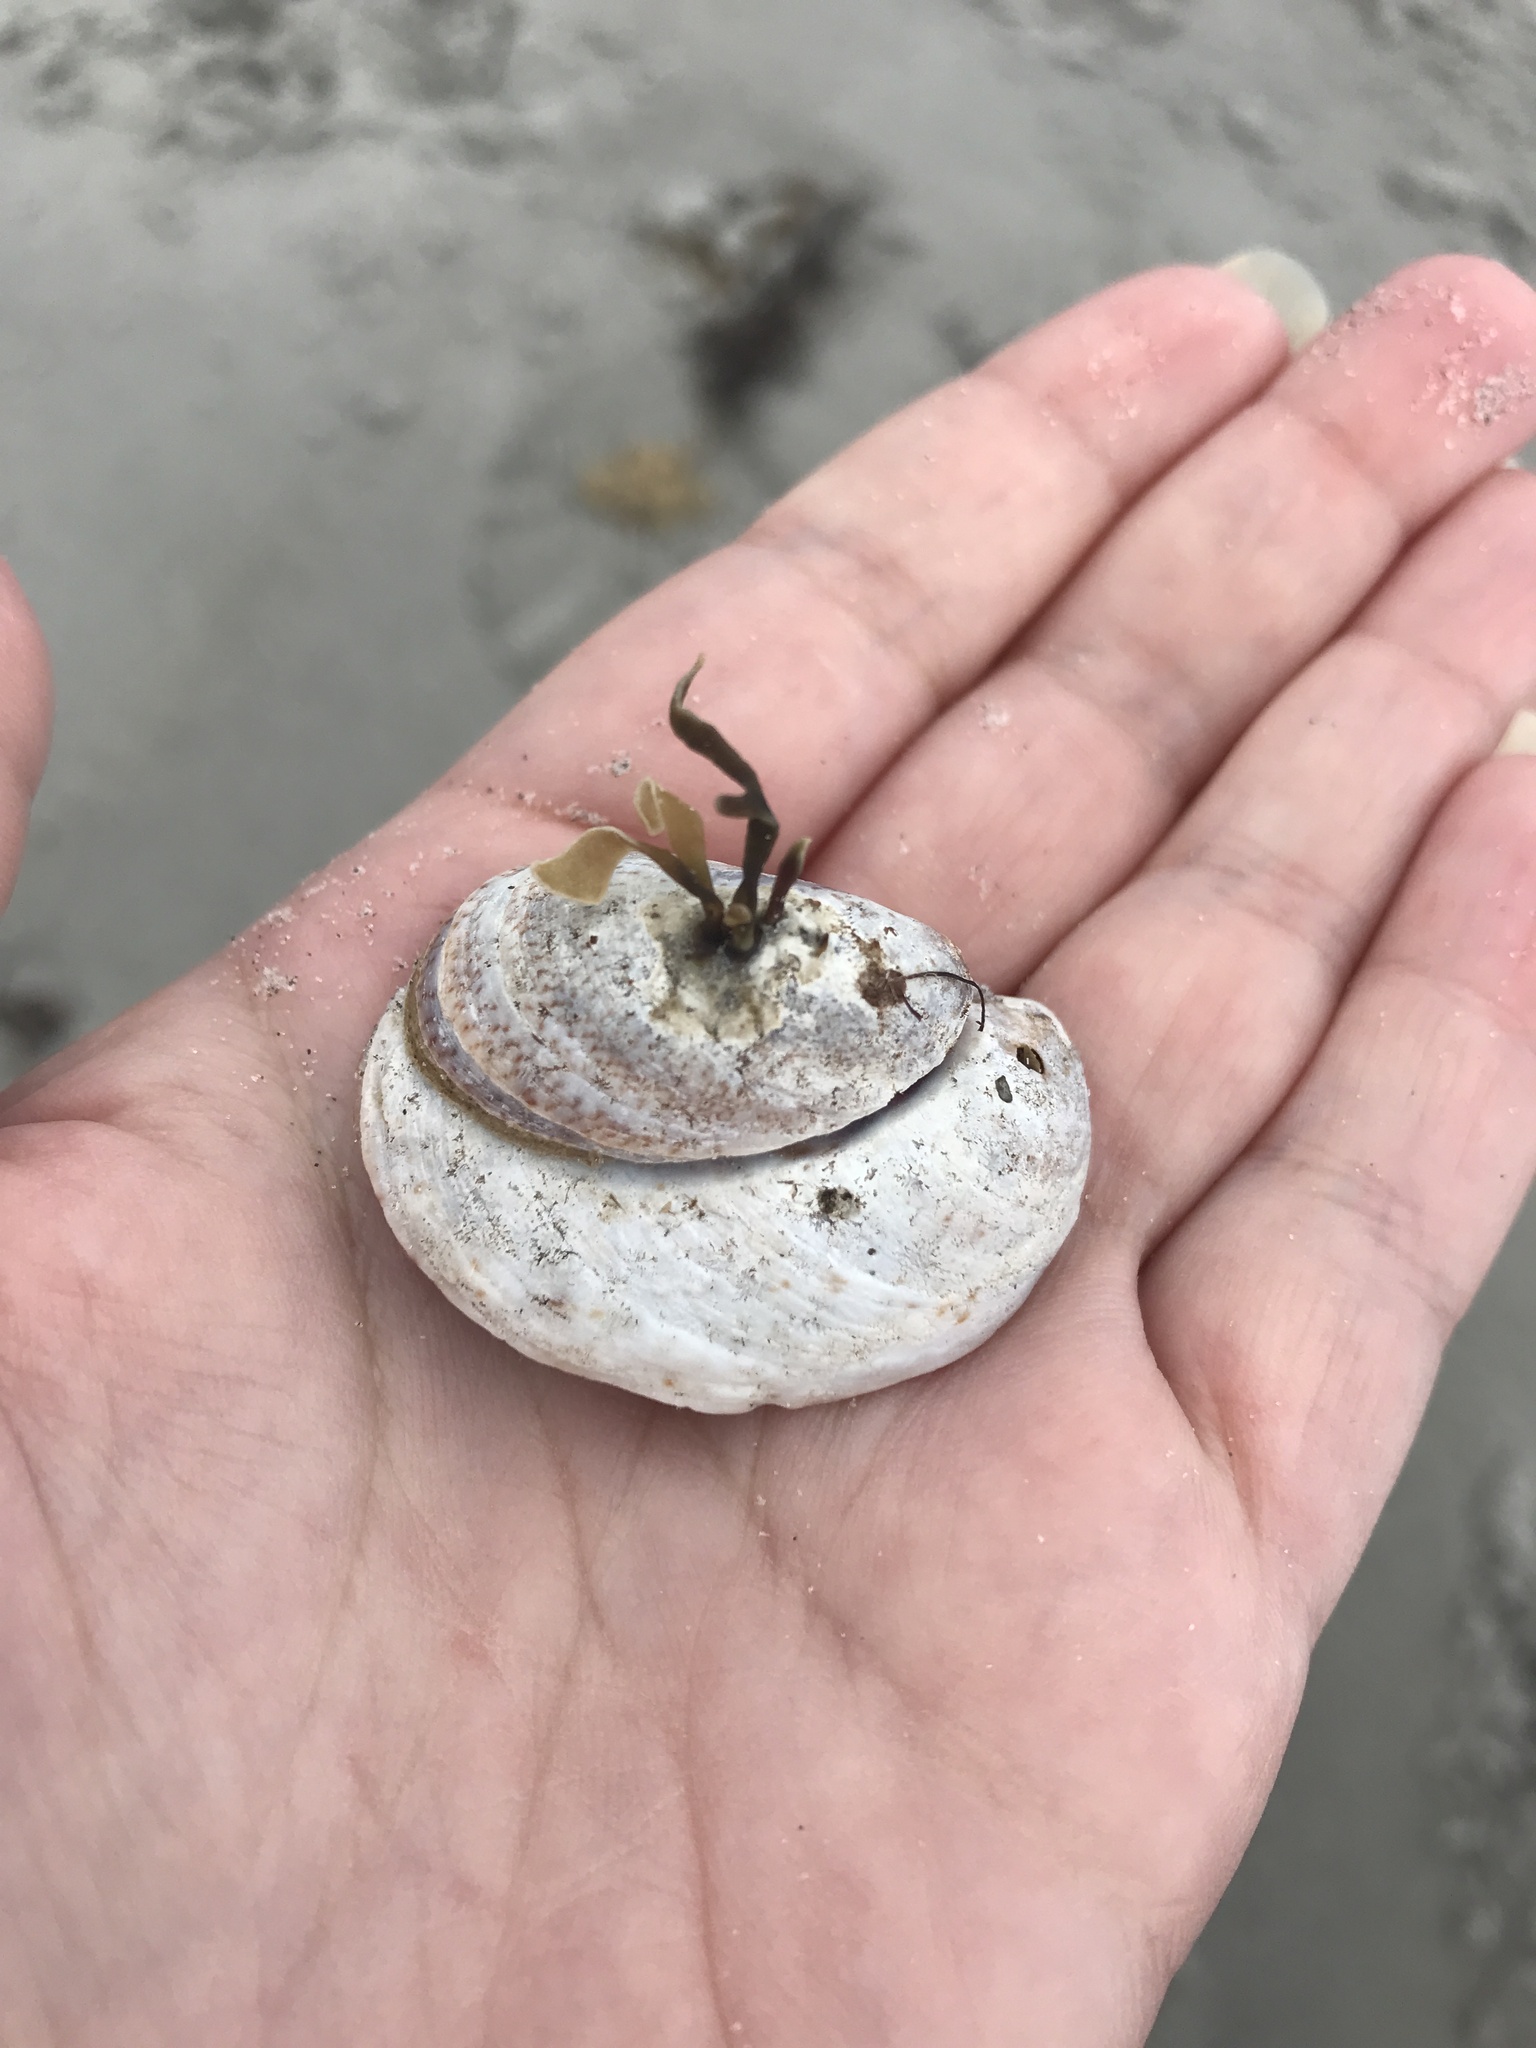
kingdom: Animalia
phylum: Mollusca
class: Gastropoda
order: Littorinimorpha
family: Calyptraeidae
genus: Crepidula
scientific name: Crepidula fornicata
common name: Slipper limpet
